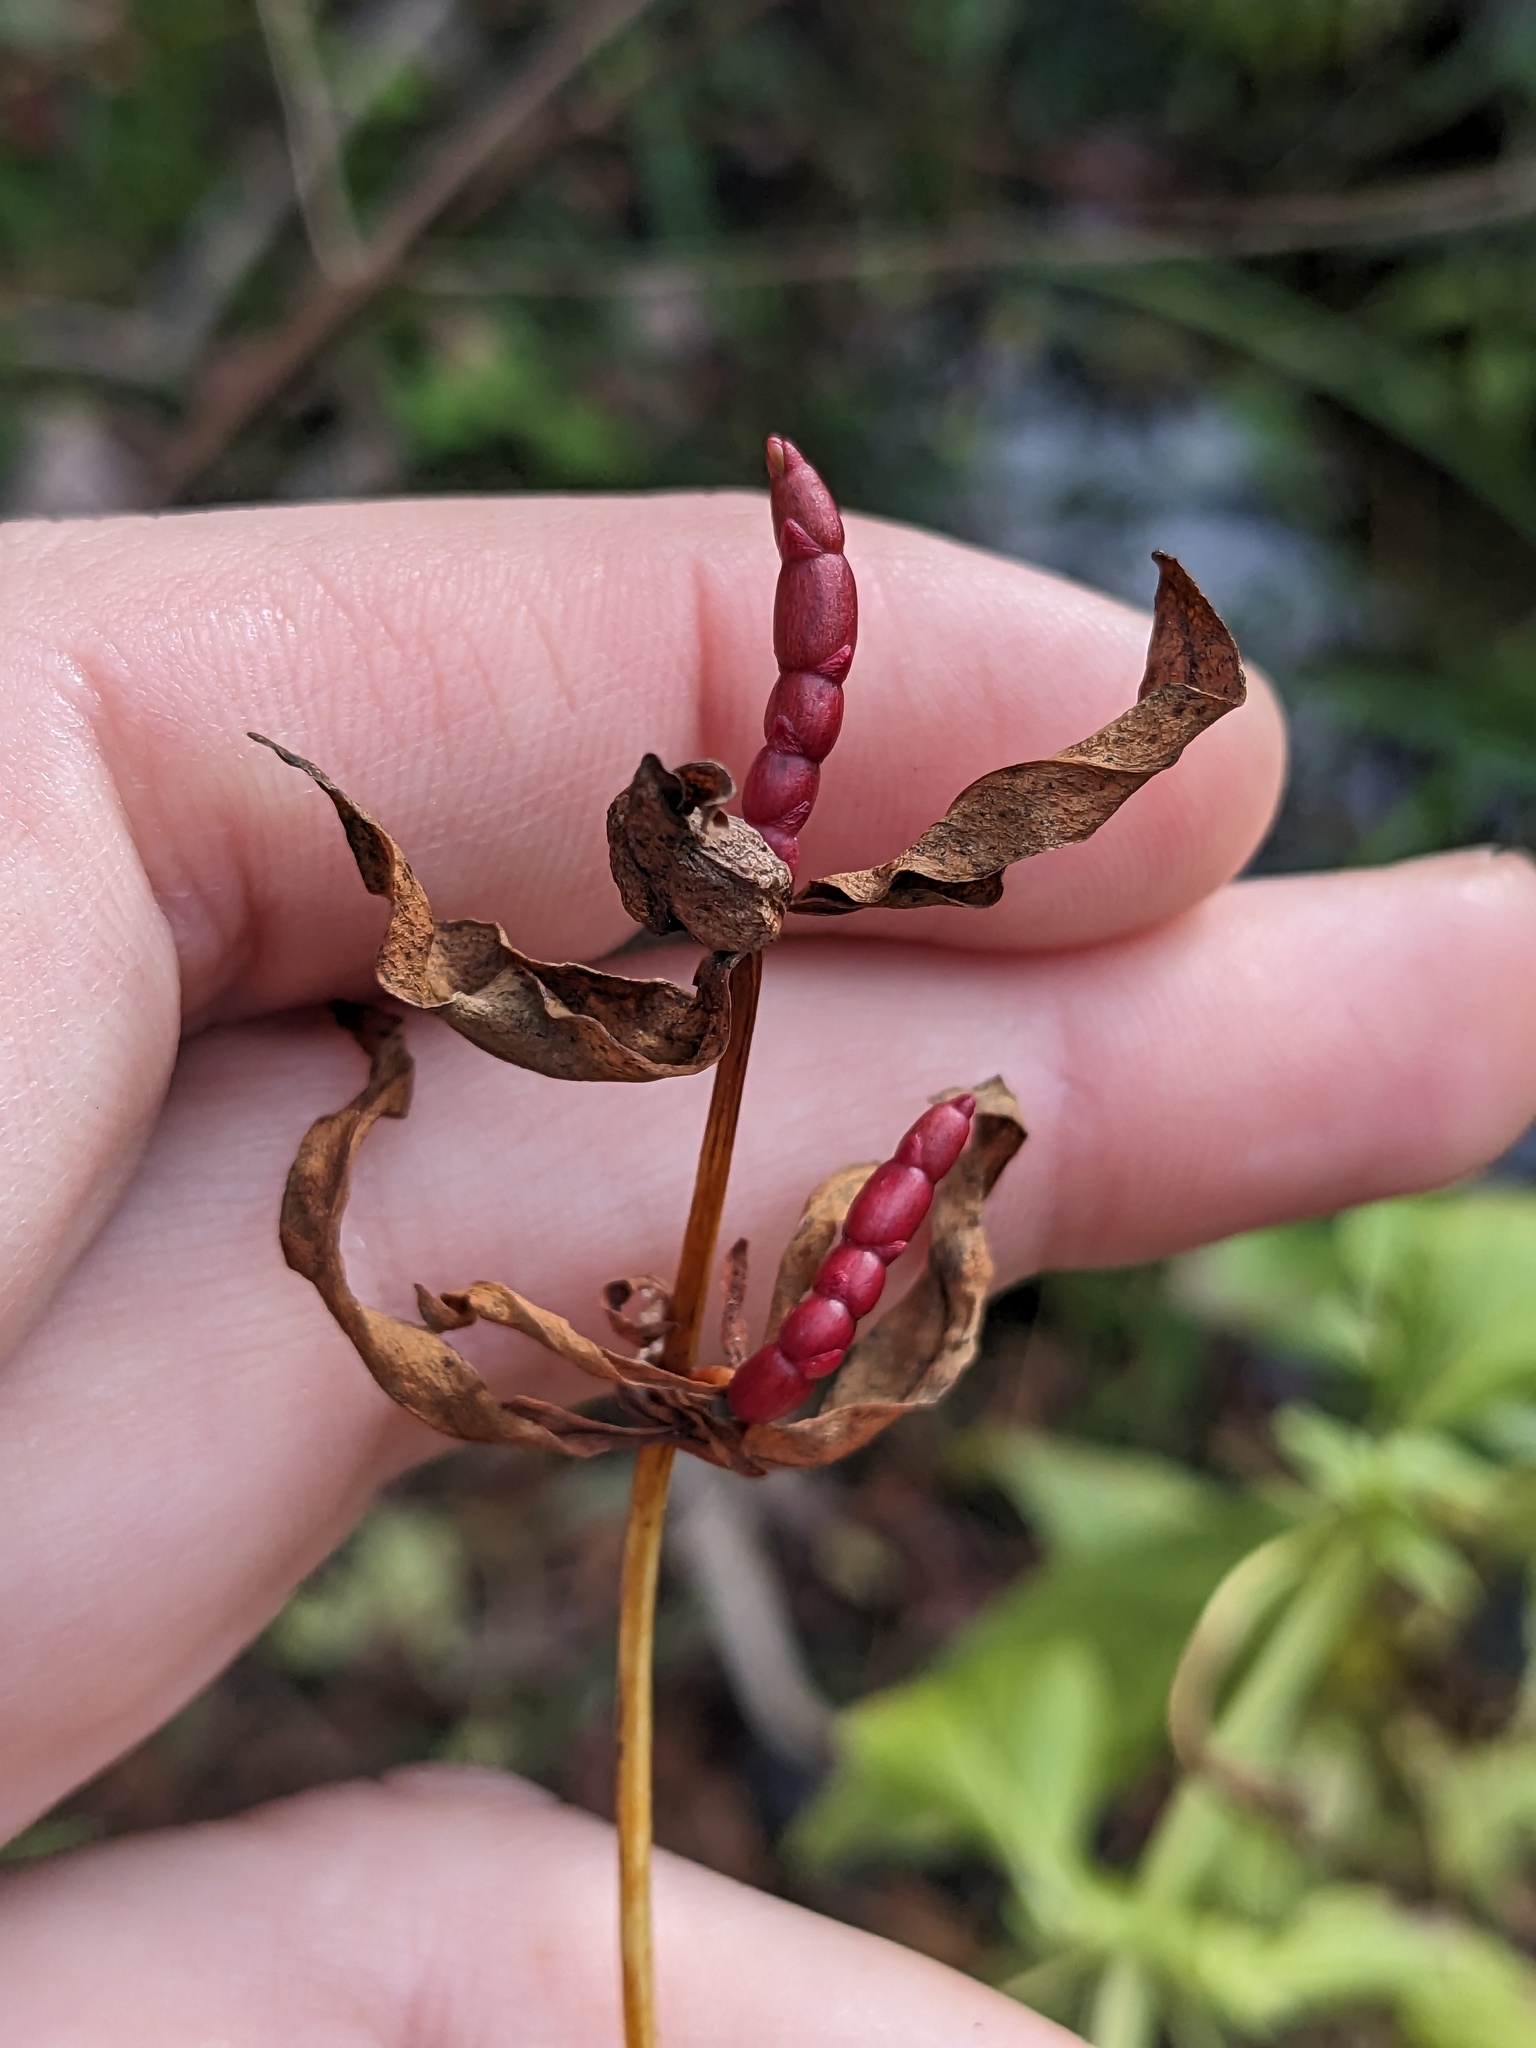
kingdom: Plantae
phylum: Tracheophyta
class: Magnoliopsida
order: Ericales
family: Primulaceae
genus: Lysimachia
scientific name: Lysimachia terrestris
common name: Lake loosestrife
